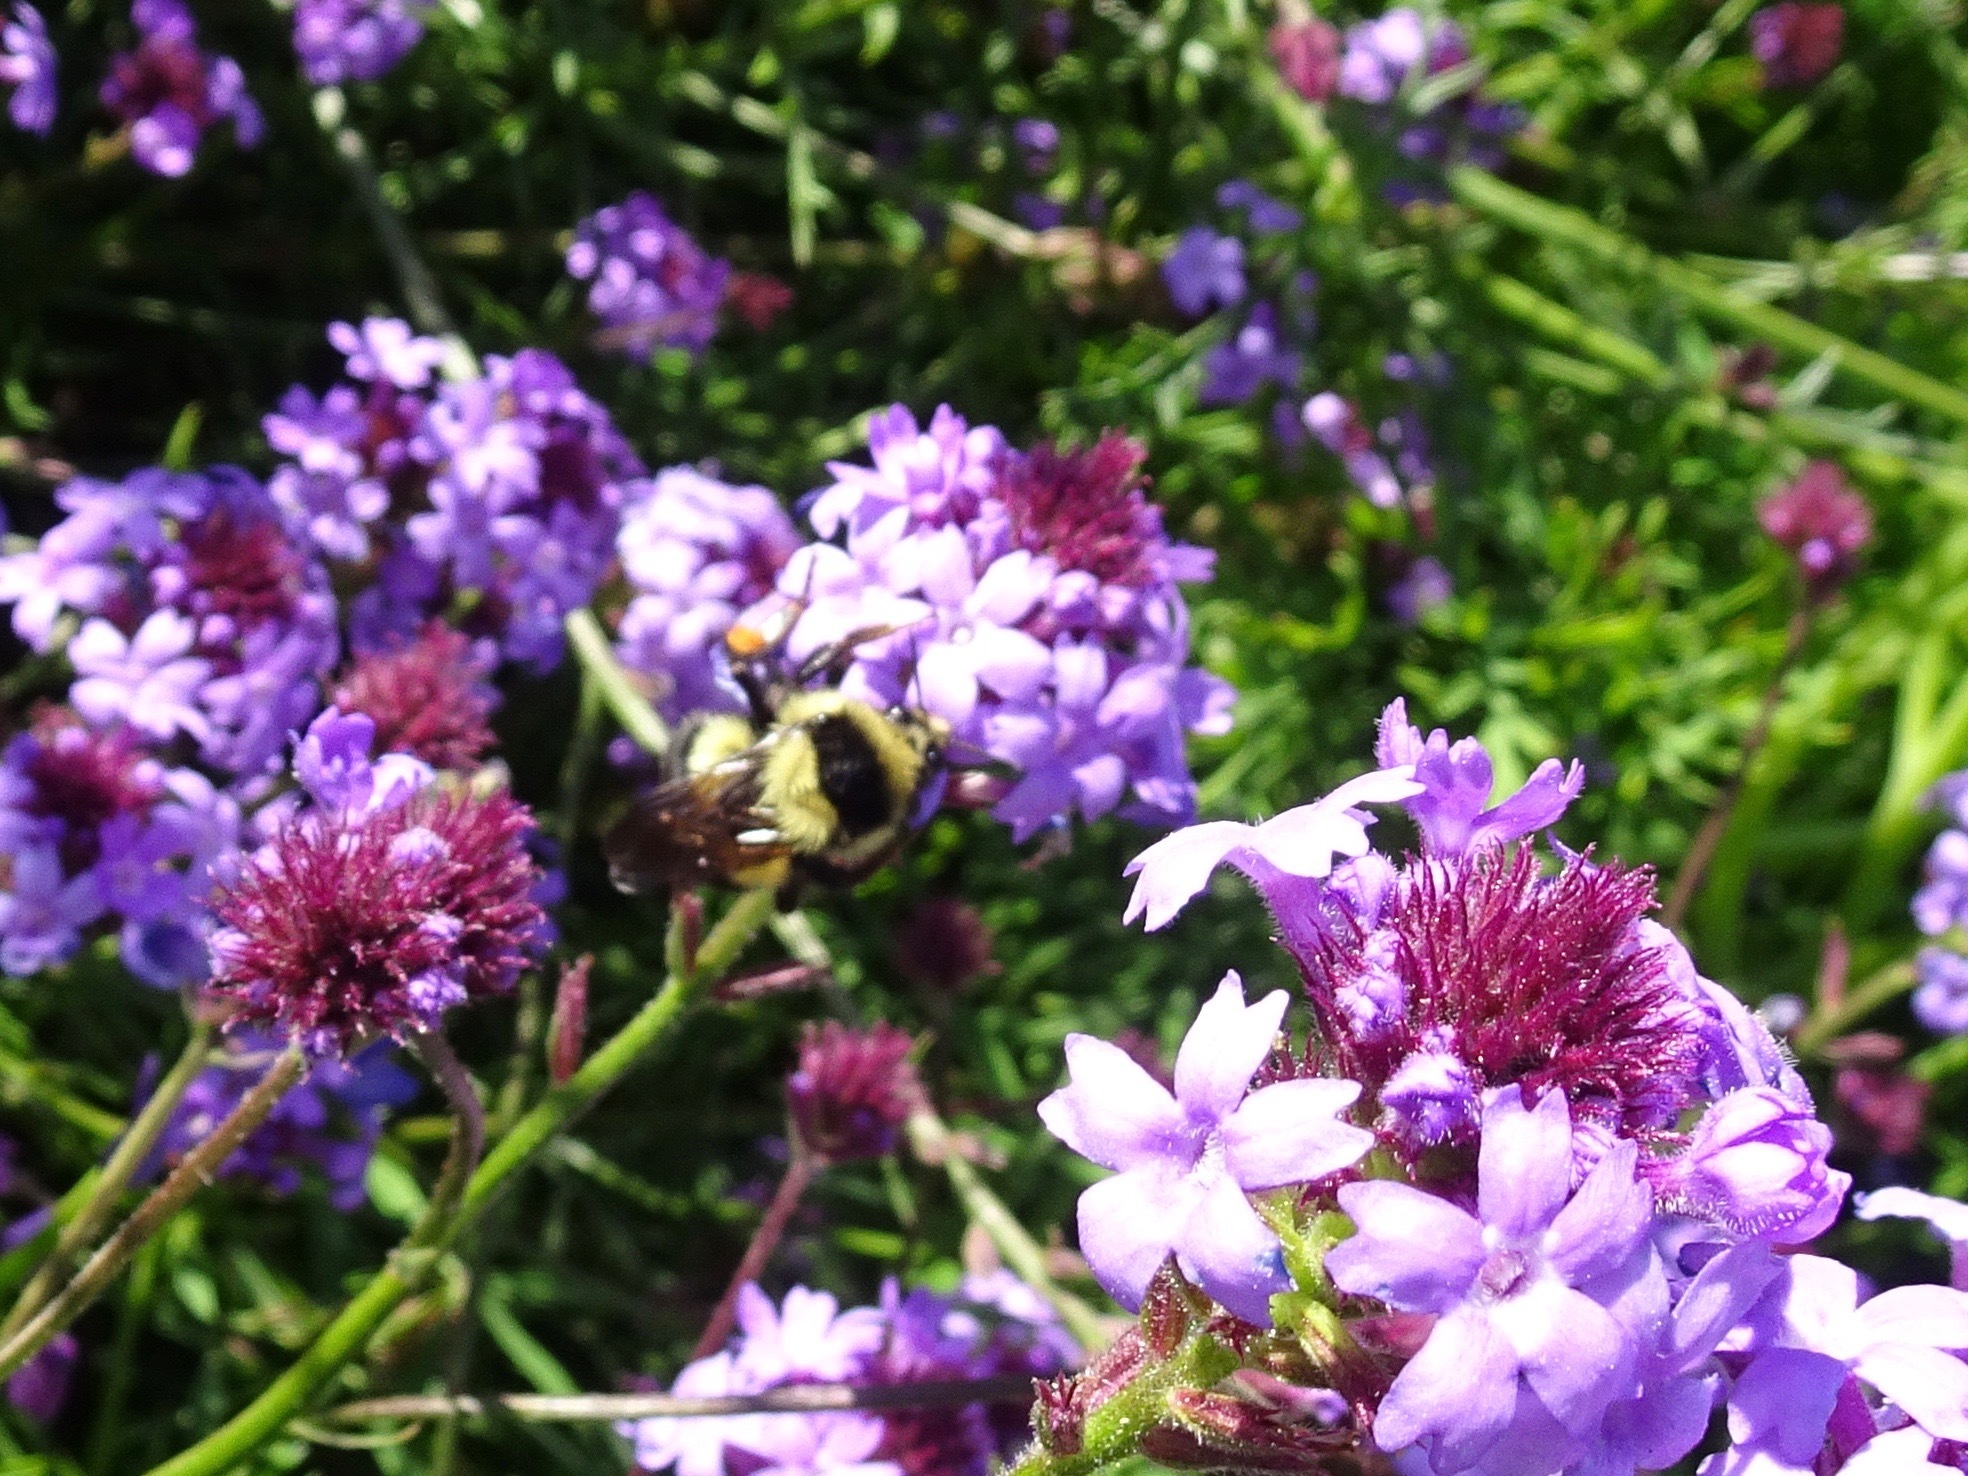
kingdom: Animalia
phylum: Arthropoda
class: Insecta
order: Hymenoptera
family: Apidae
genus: Bombus
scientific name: Bombus melanopygus
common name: Black tail bumble bee
